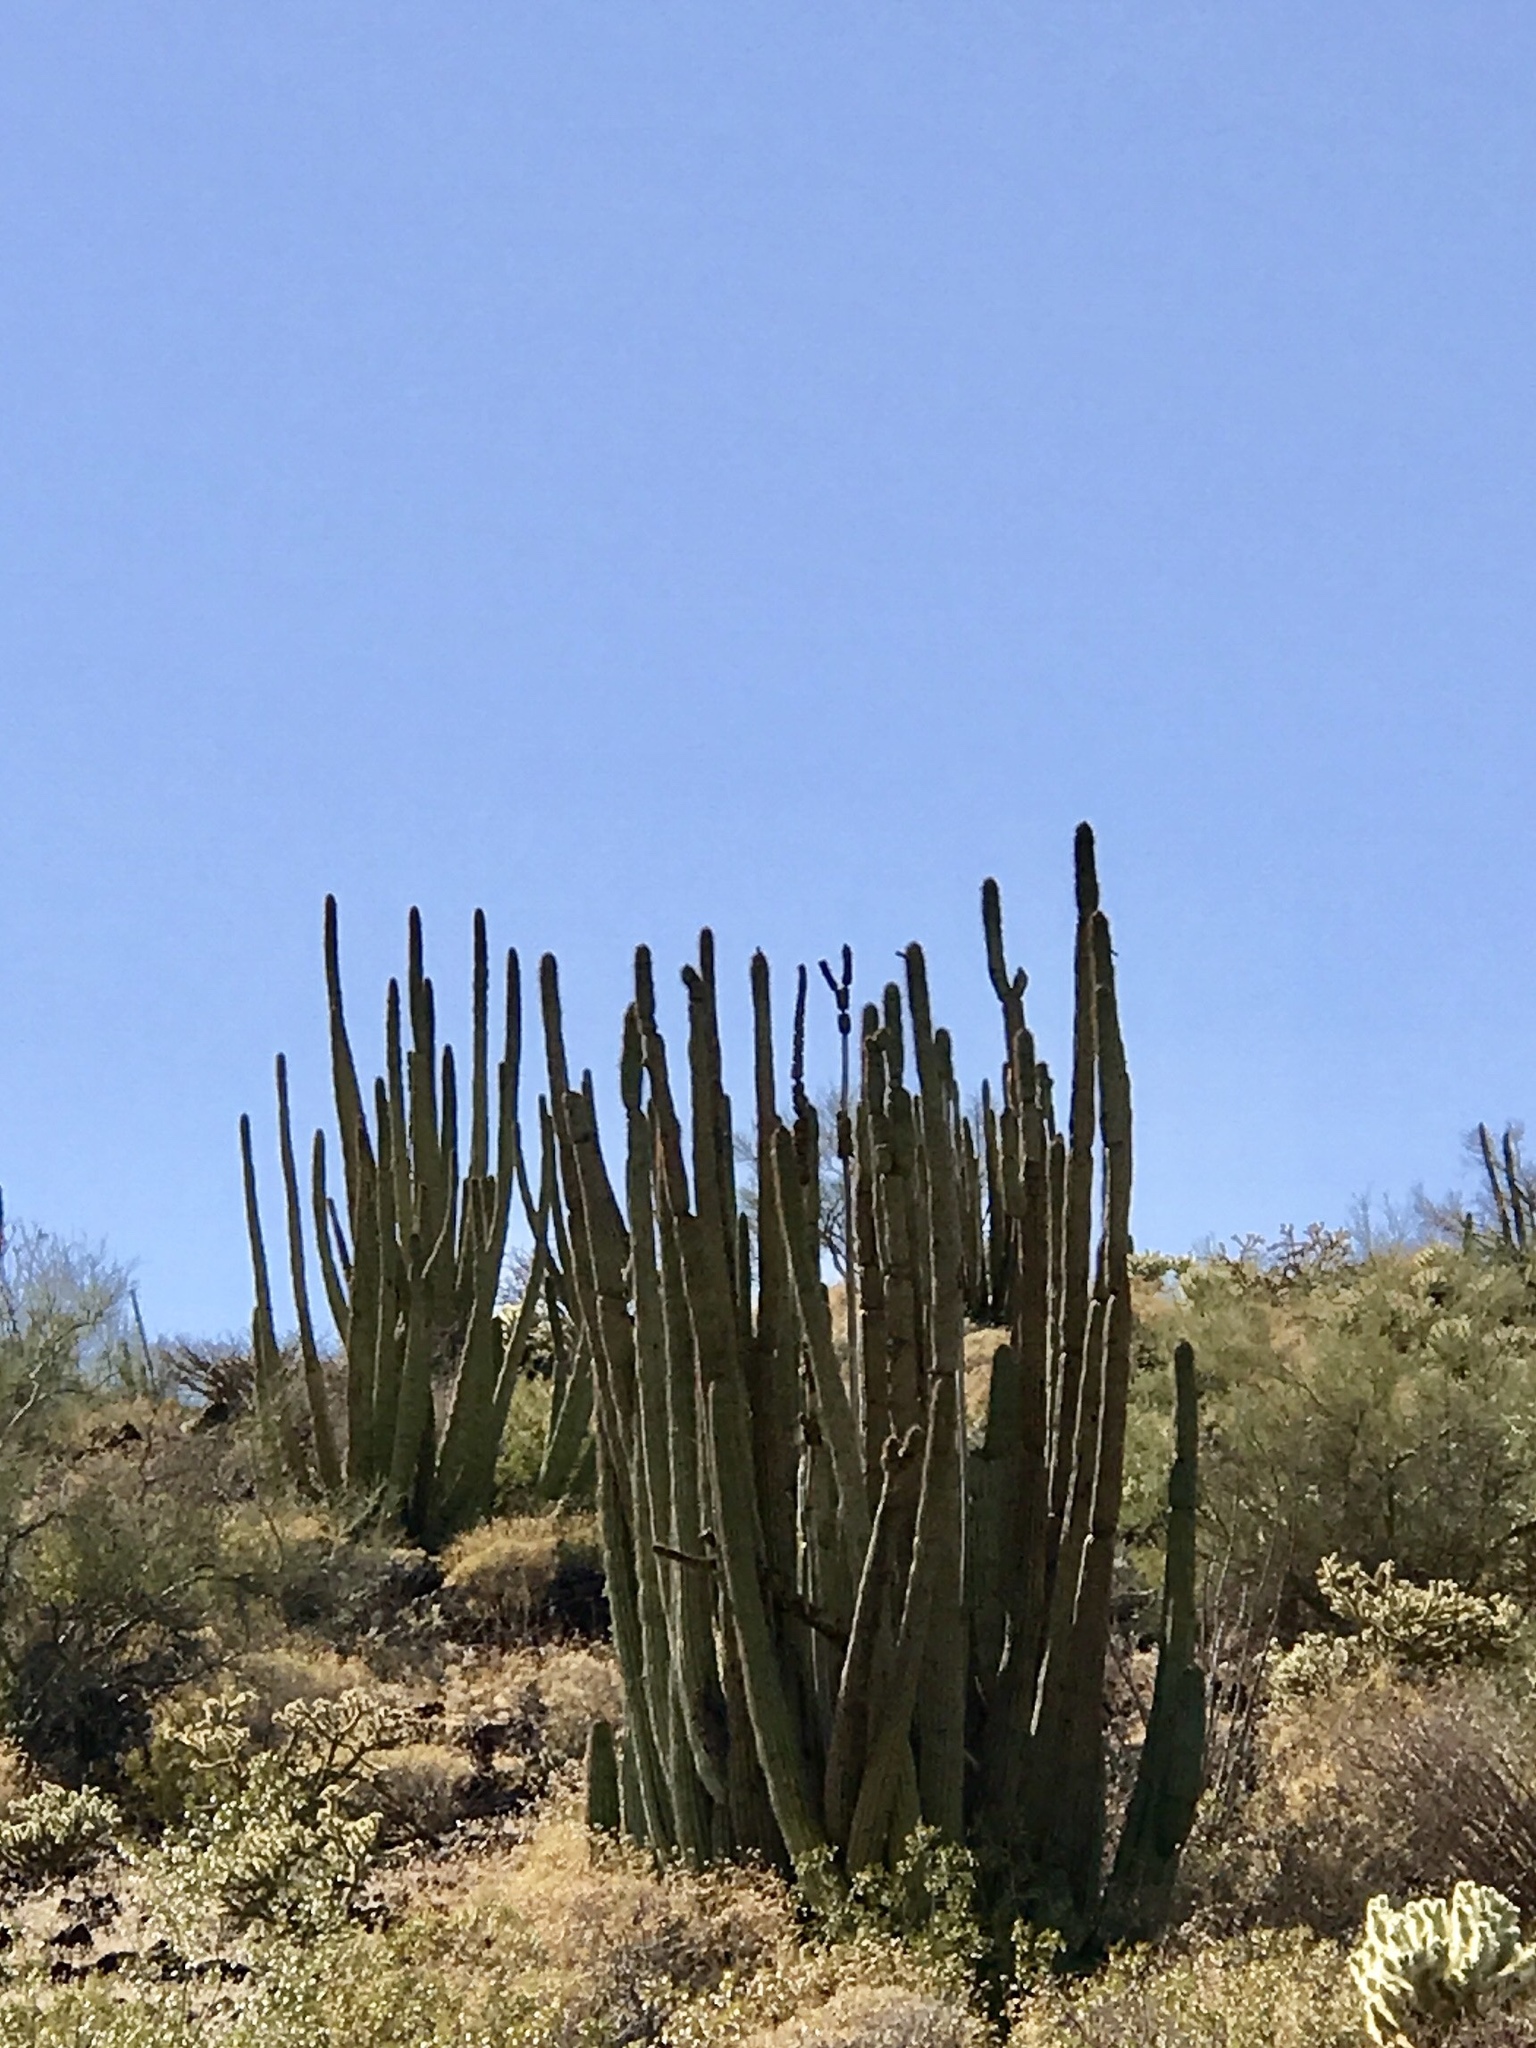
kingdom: Plantae
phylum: Tracheophyta
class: Magnoliopsida
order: Caryophyllales
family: Cactaceae
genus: Stenocereus
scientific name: Stenocereus thurberi
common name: Organ pipe cactus
